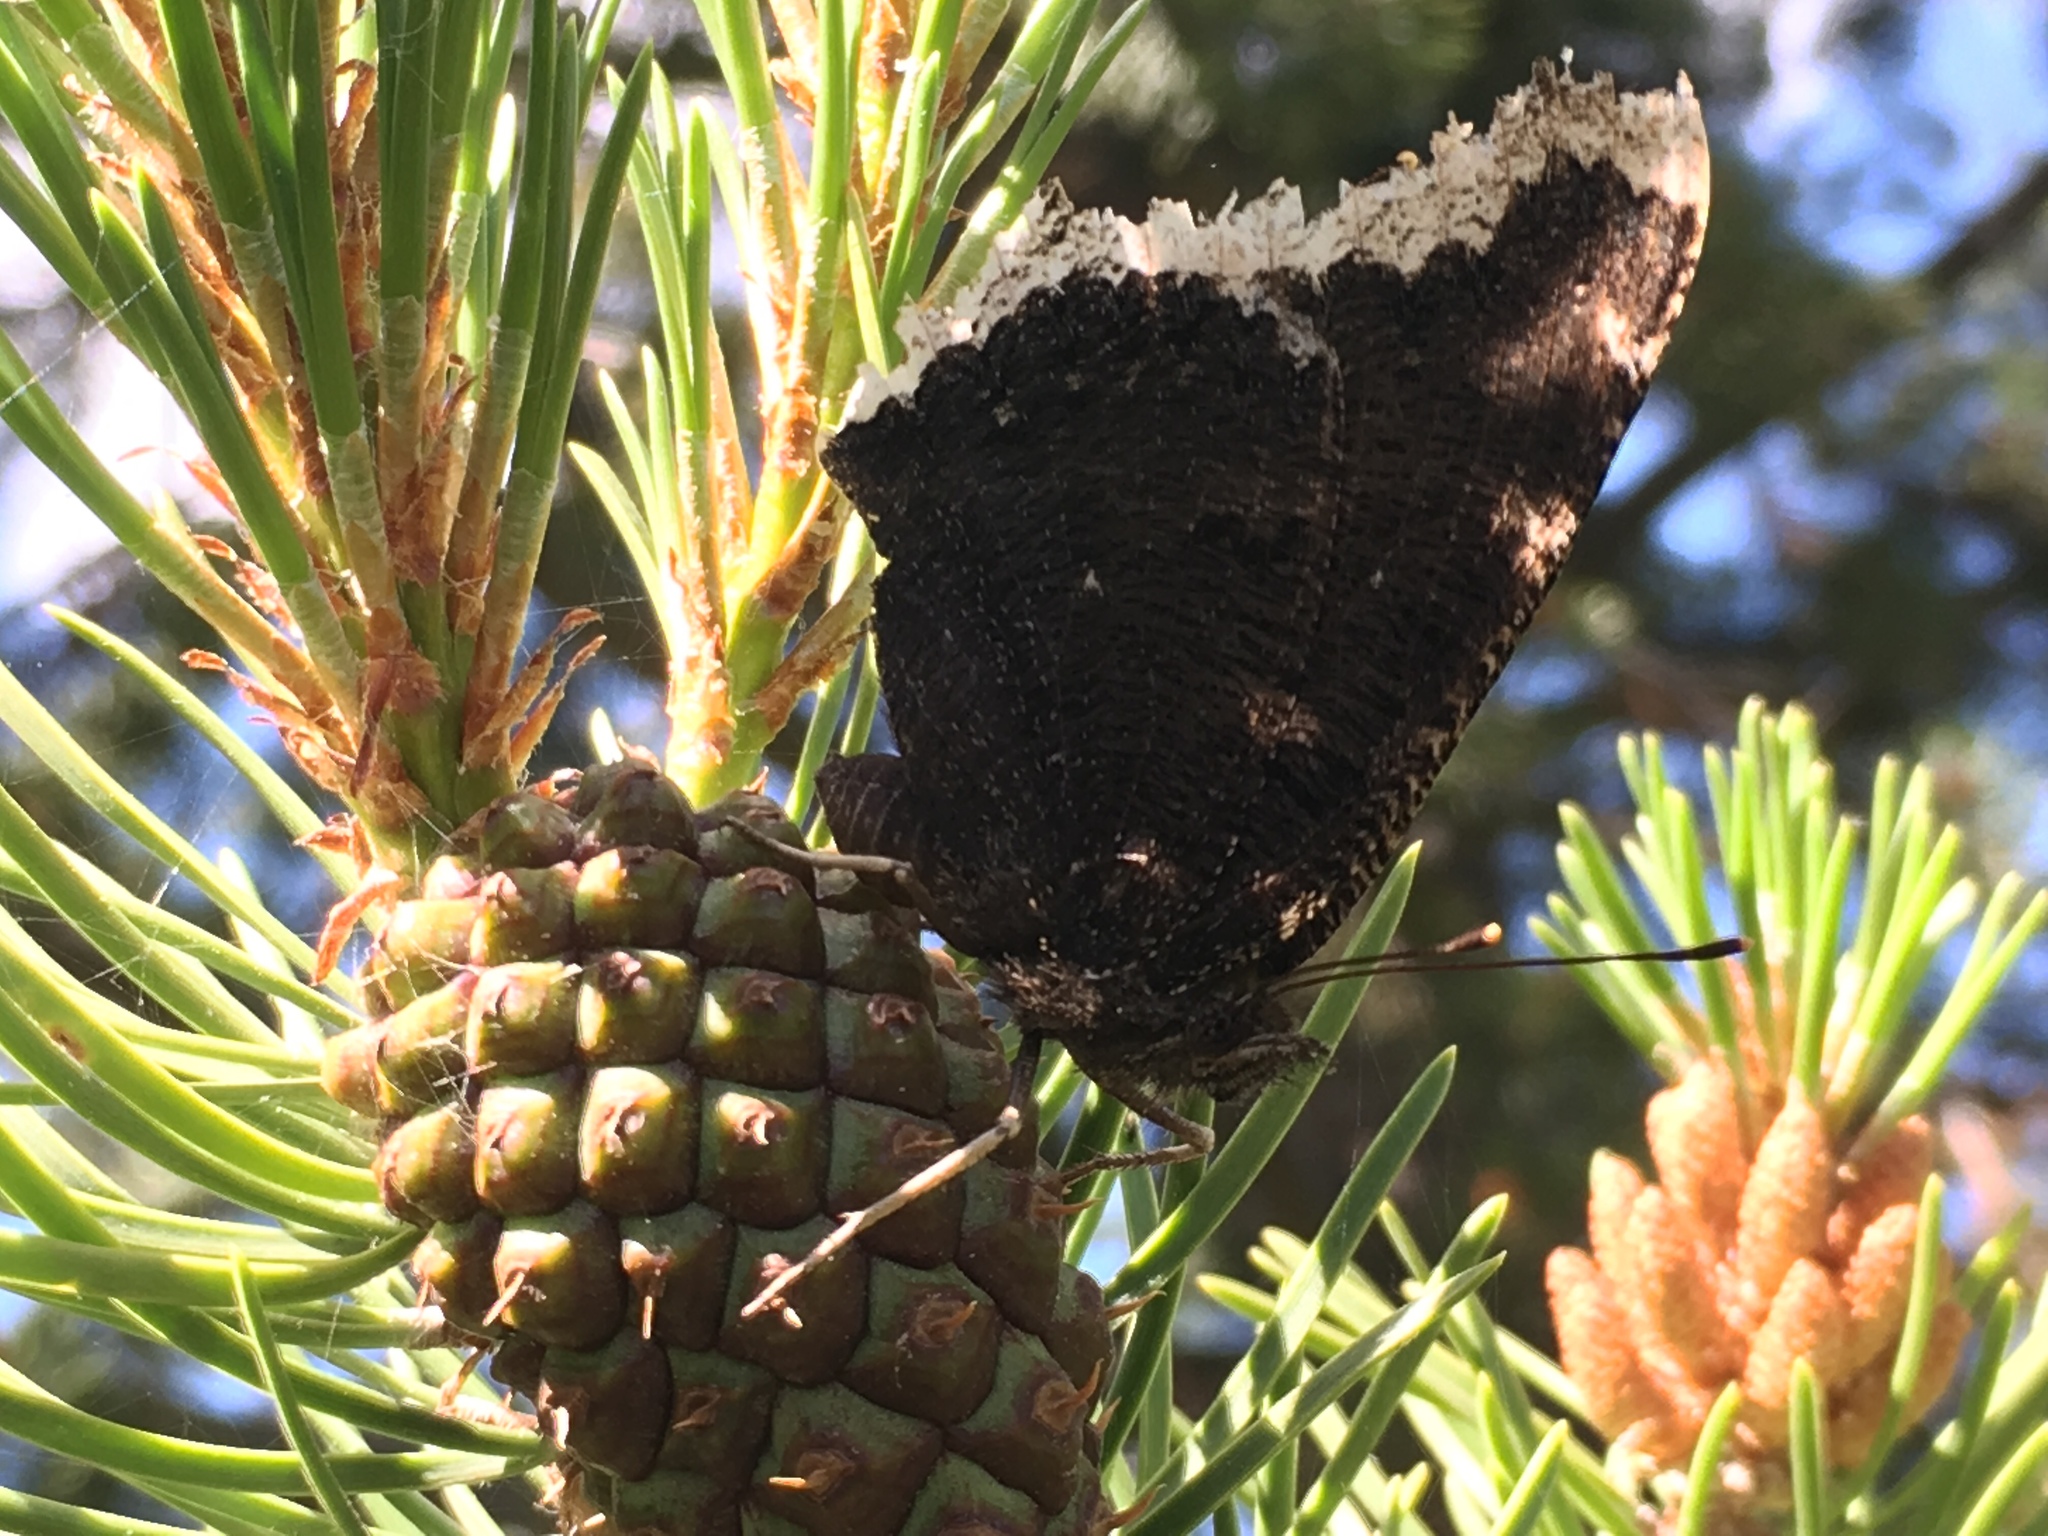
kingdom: Animalia
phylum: Arthropoda
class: Insecta
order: Lepidoptera
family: Nymphalidae
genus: Nymphalis
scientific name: Nymphalis antiopa
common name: Camberwell beauty
